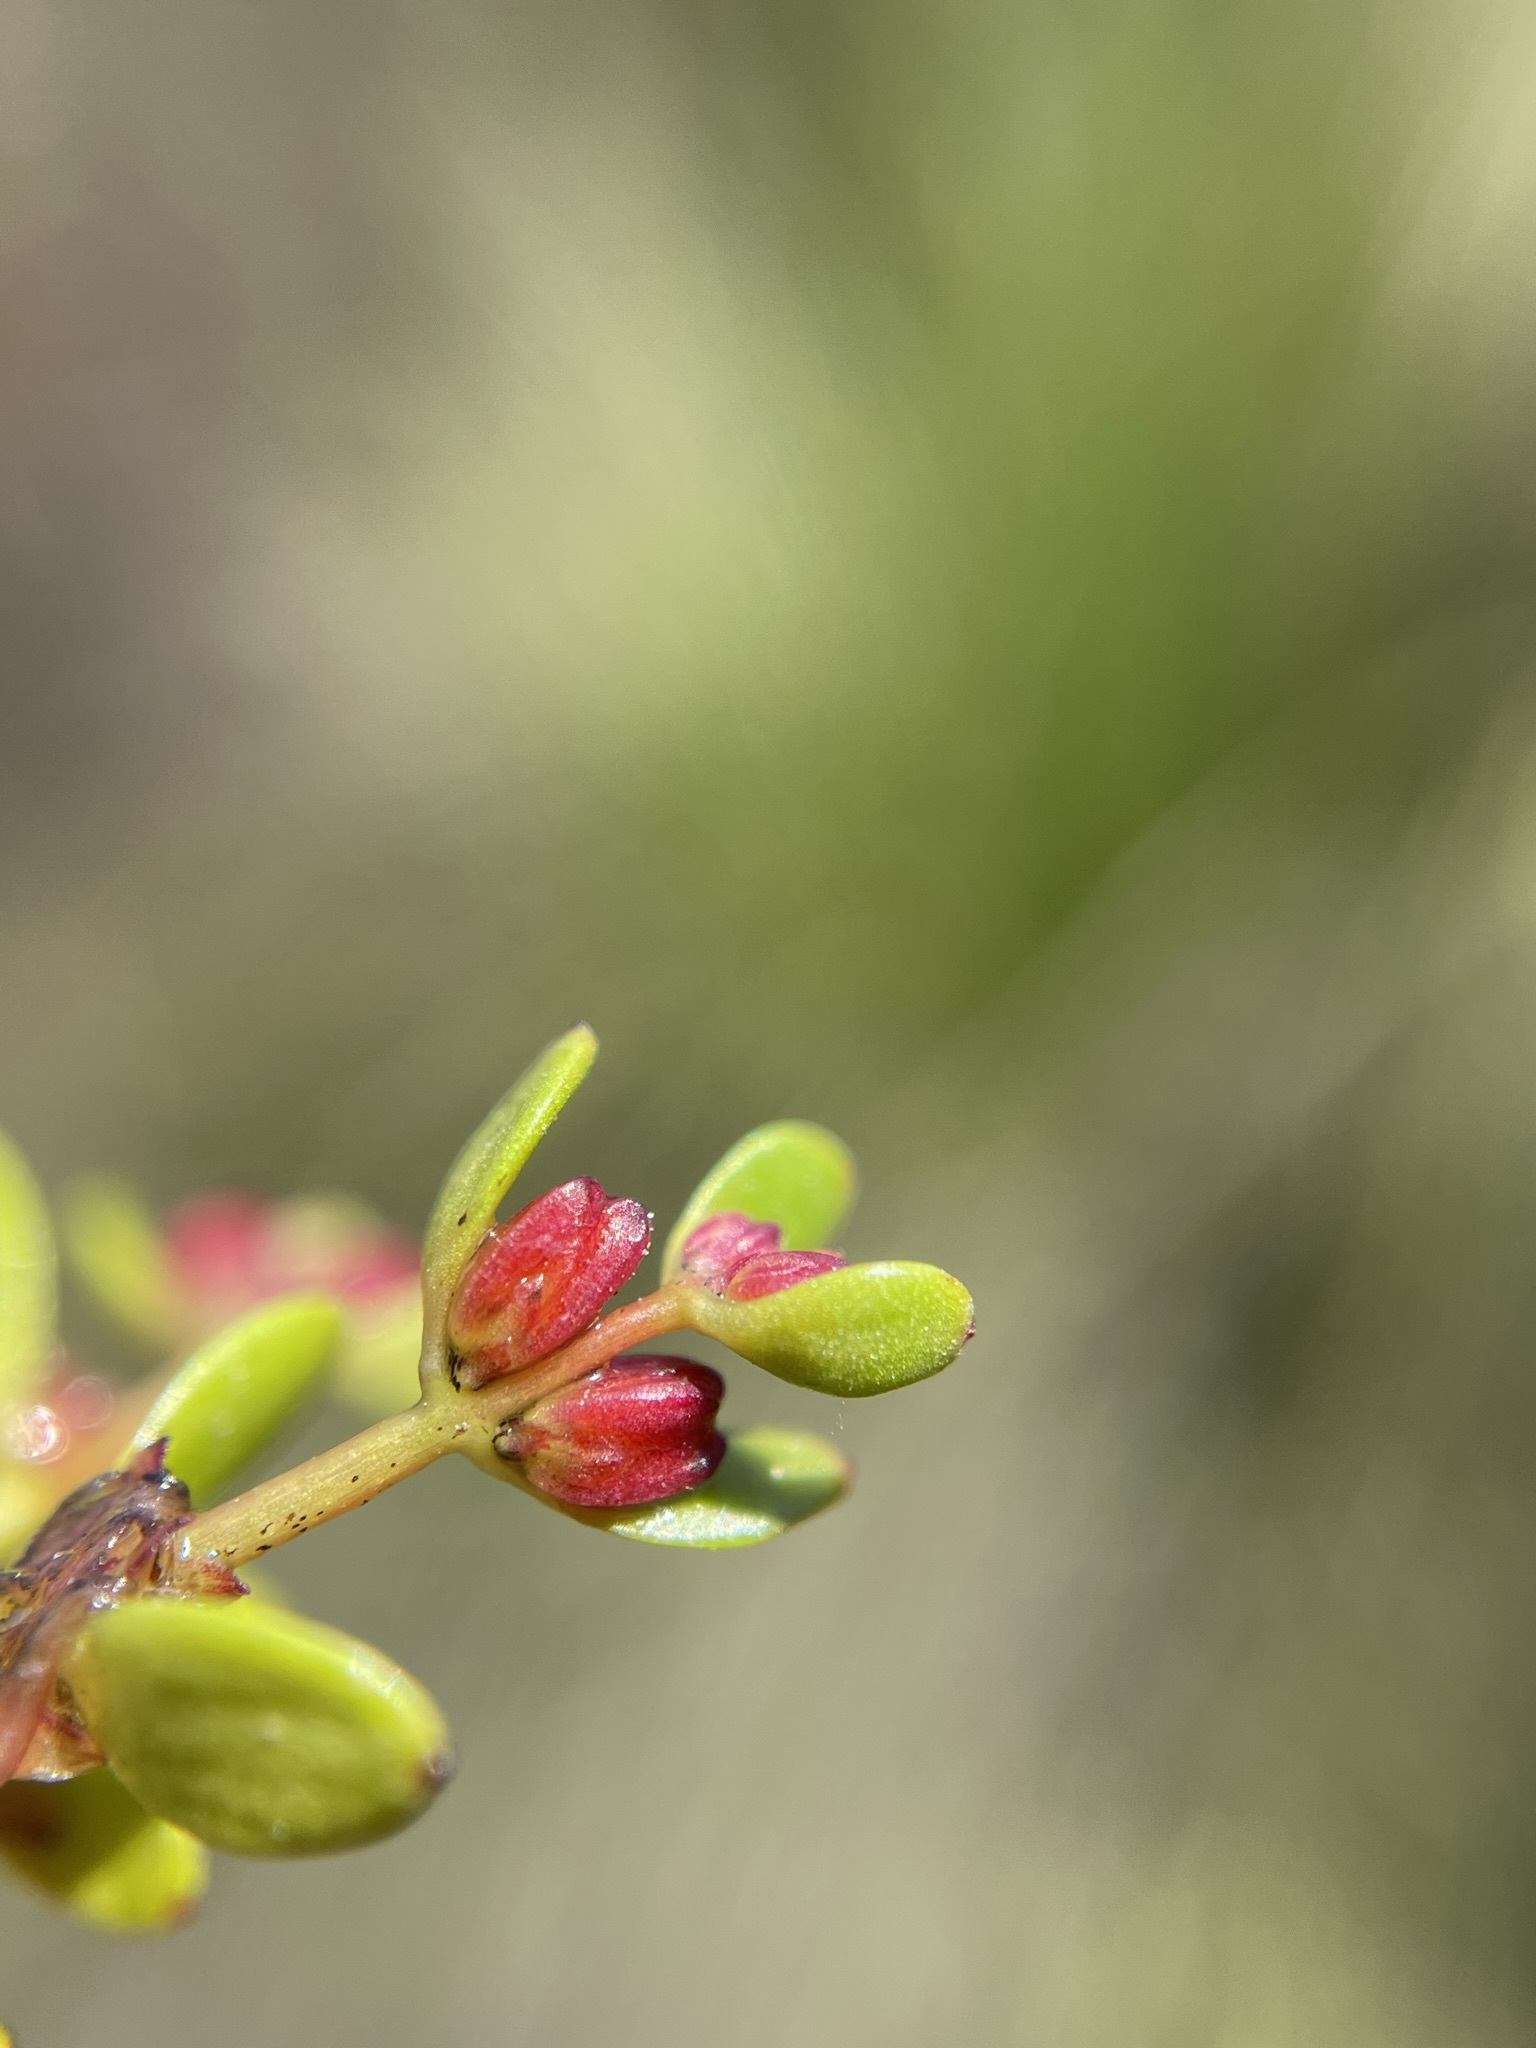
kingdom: Plantae
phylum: Tracheophyta
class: Magnoliopsida
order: Saxifragales
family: Haloragaceae
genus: Myriophyllum
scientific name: Myriophyllum amphibium
